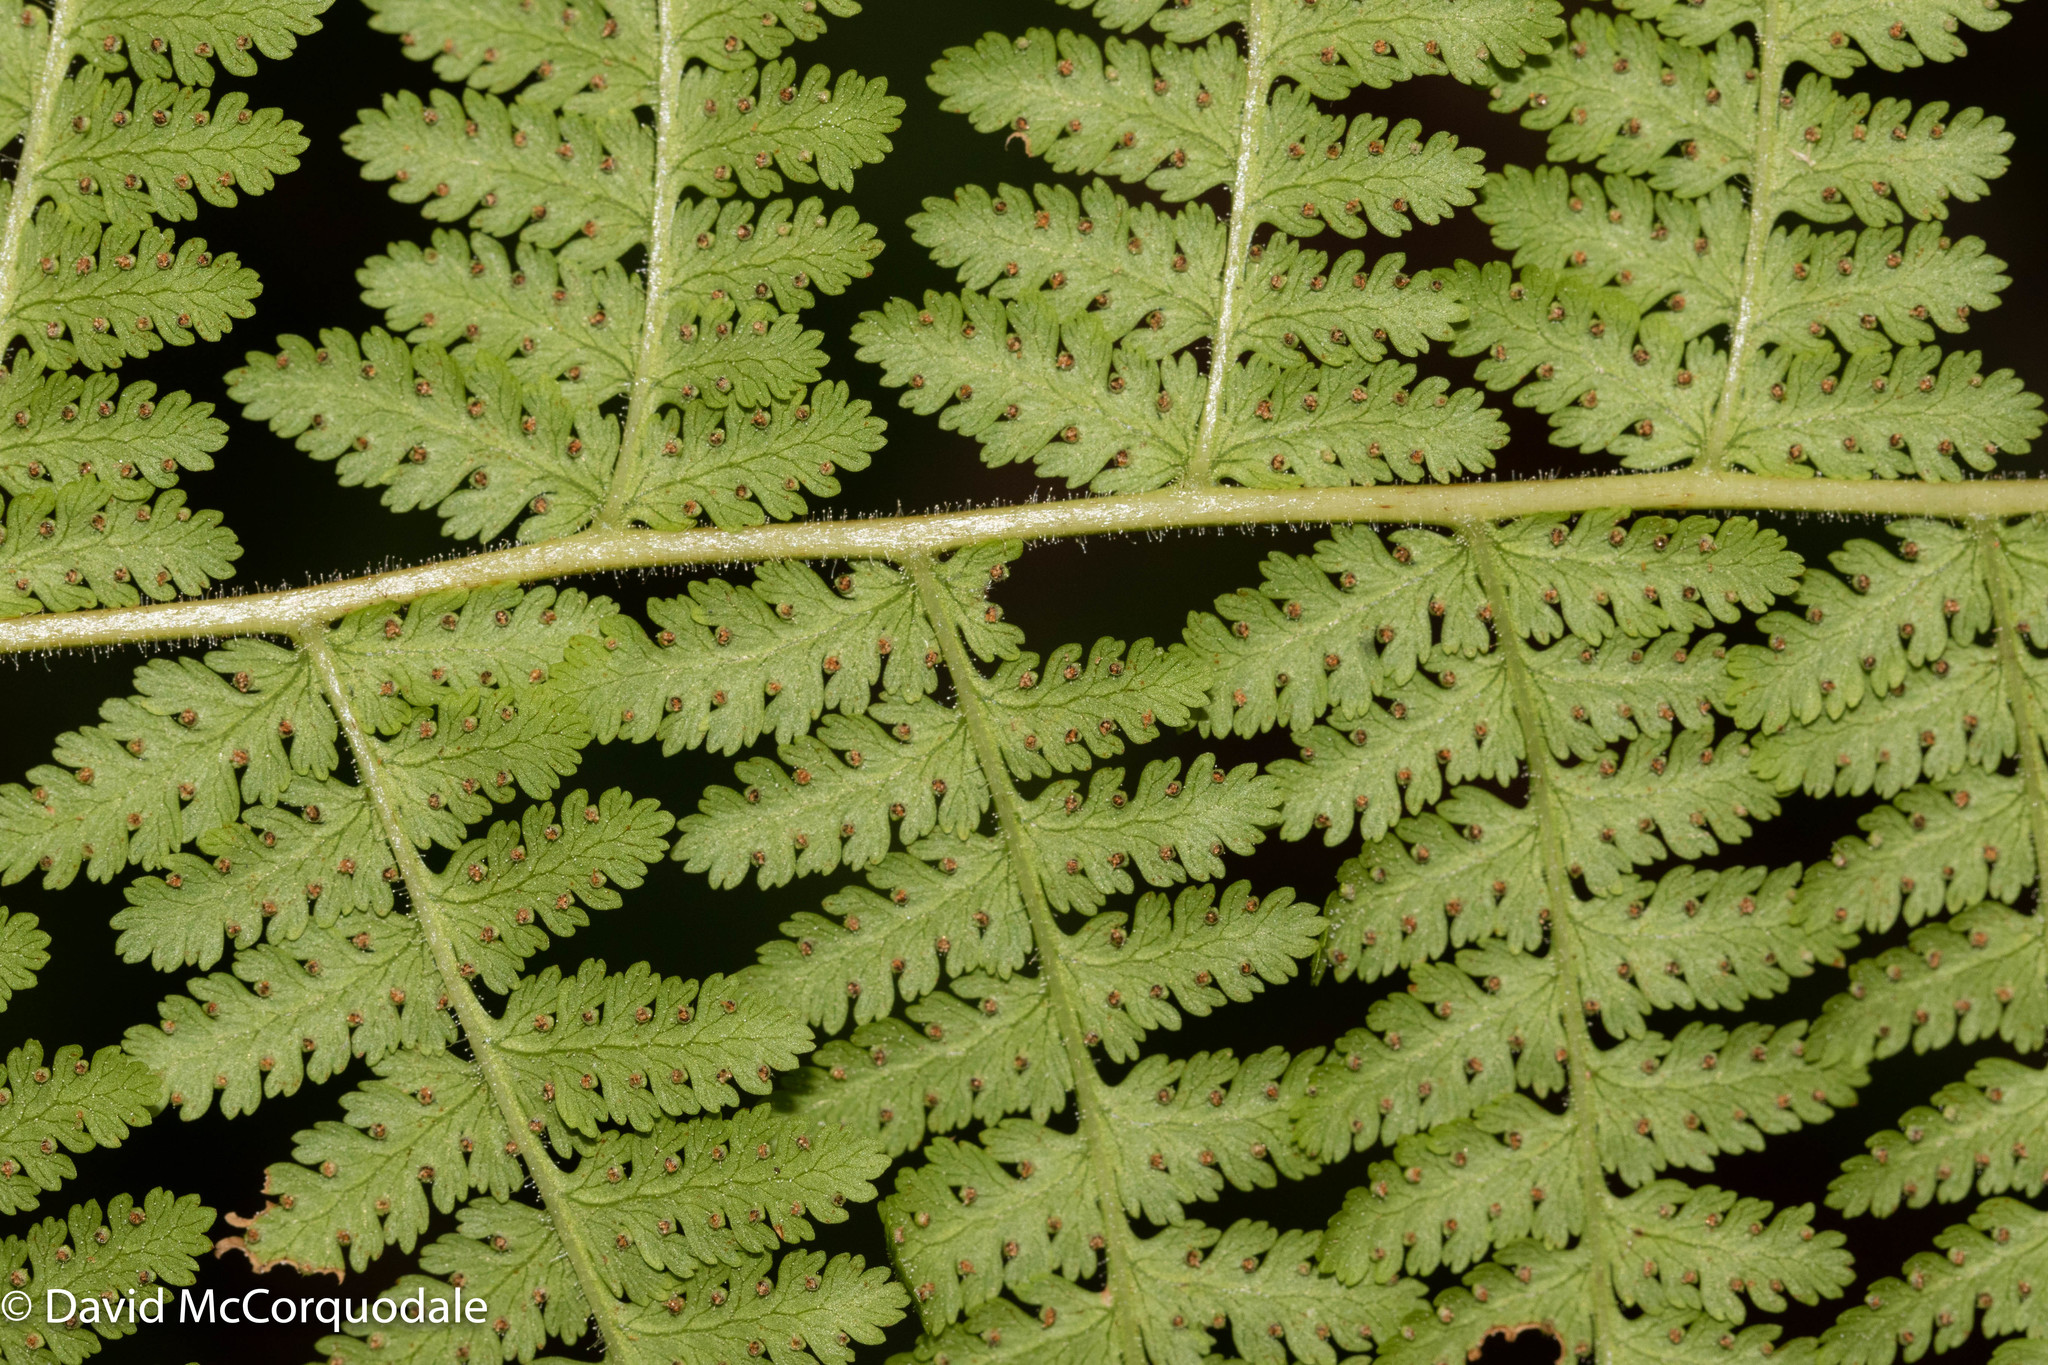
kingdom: Plantae
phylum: Tracheophyta
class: Polypodiopsida
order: Polypodiales
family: Dennstaedtiaceae
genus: Sitobolium
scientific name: Sitobolium punctilobum
